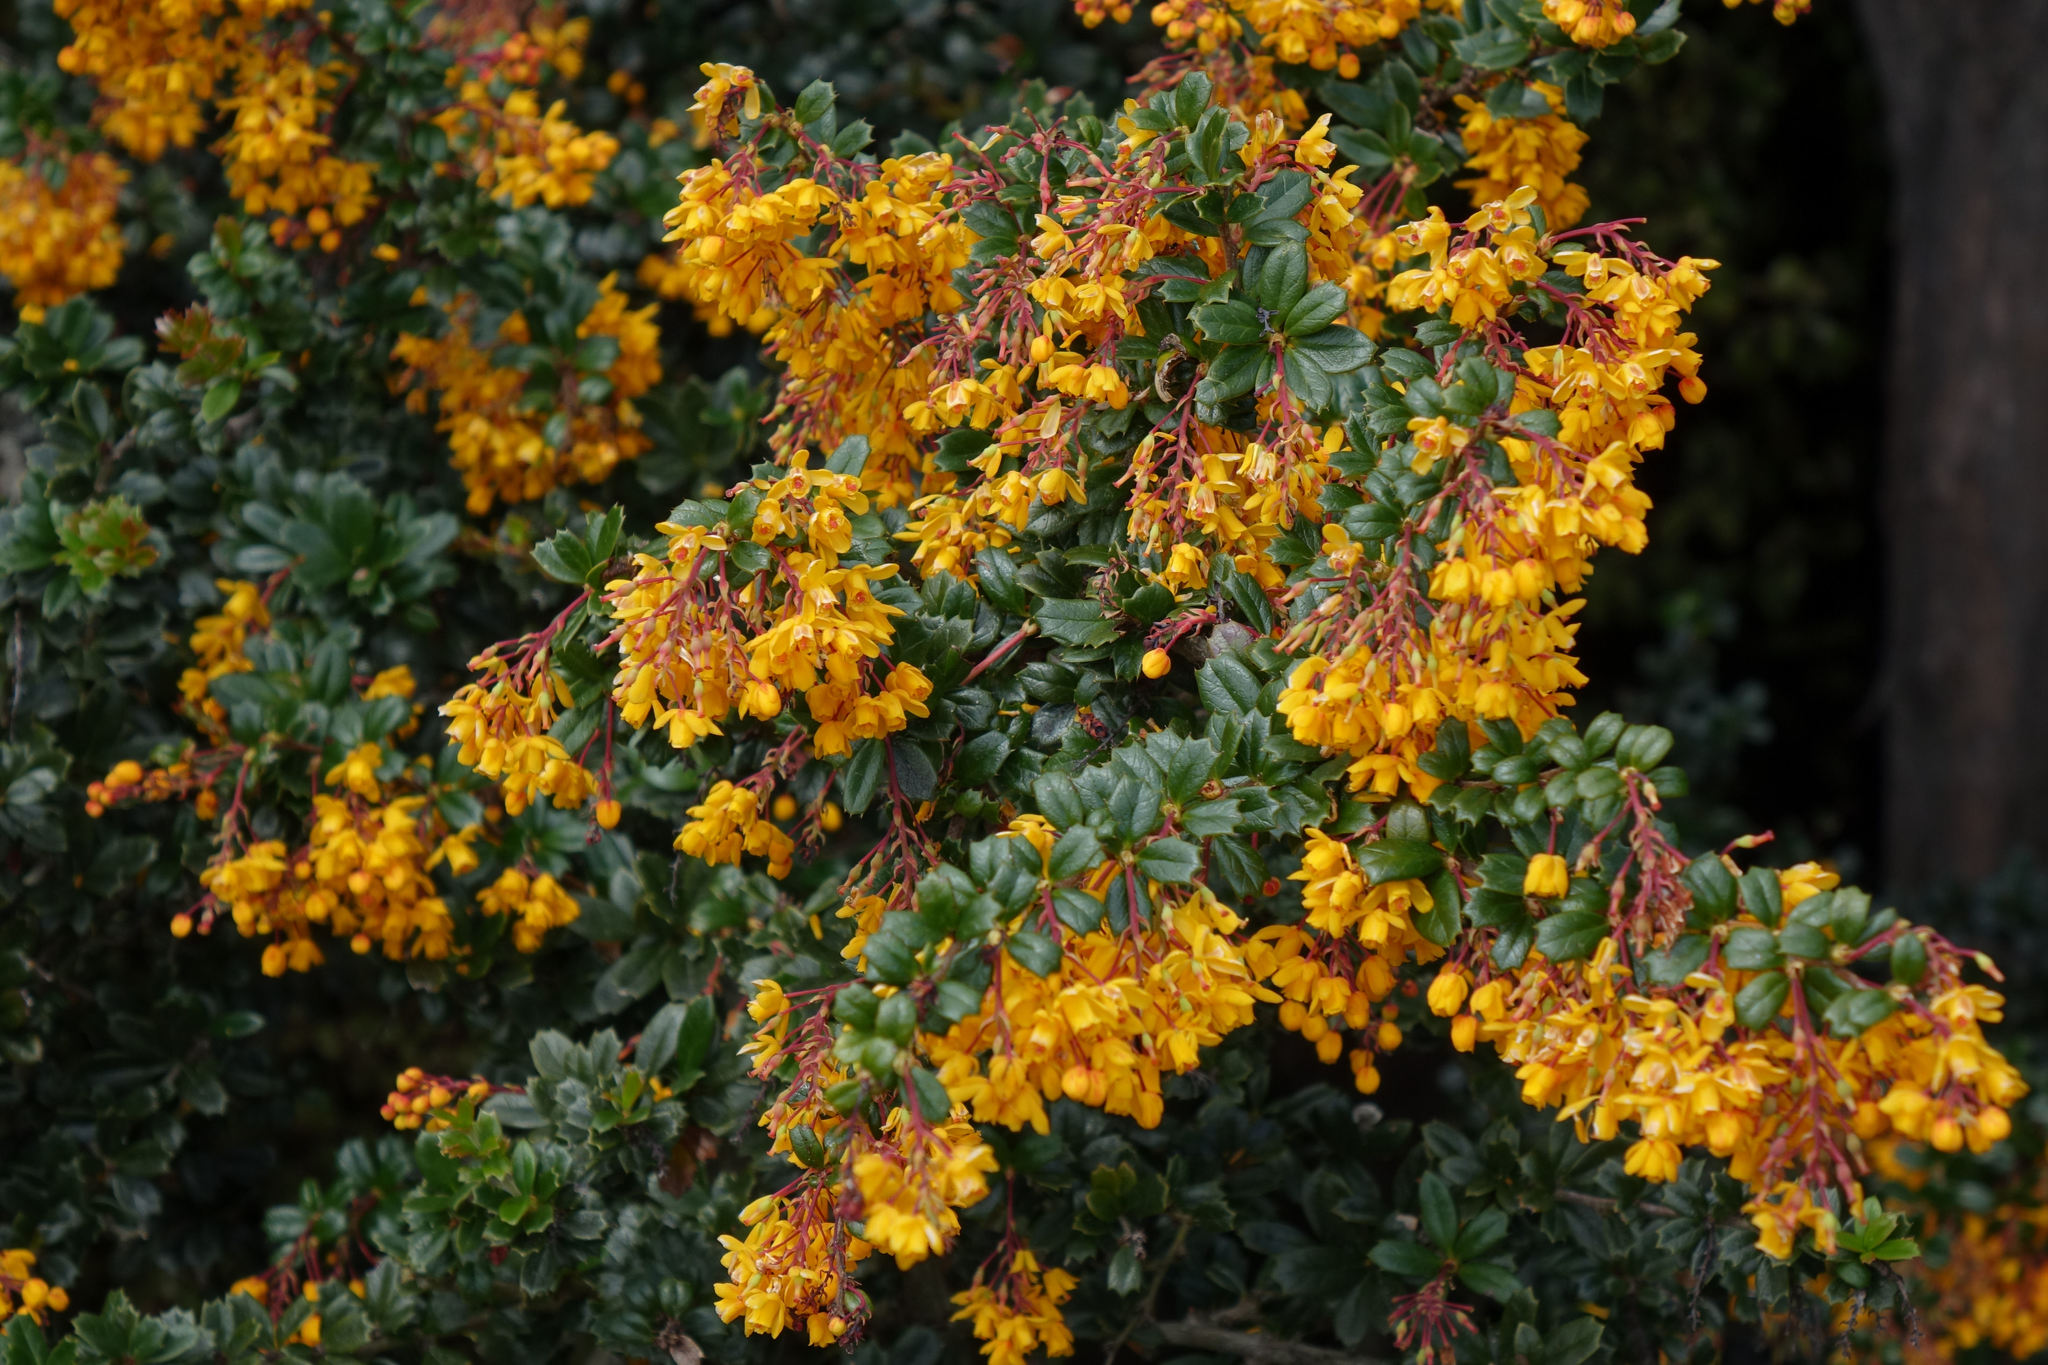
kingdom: Plantae
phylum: Tracheophyta
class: Magnoliopsida
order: Ranunculales
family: Berberidaceae
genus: Berberis
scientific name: Berberis darwinii
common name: Darwin's barberry
